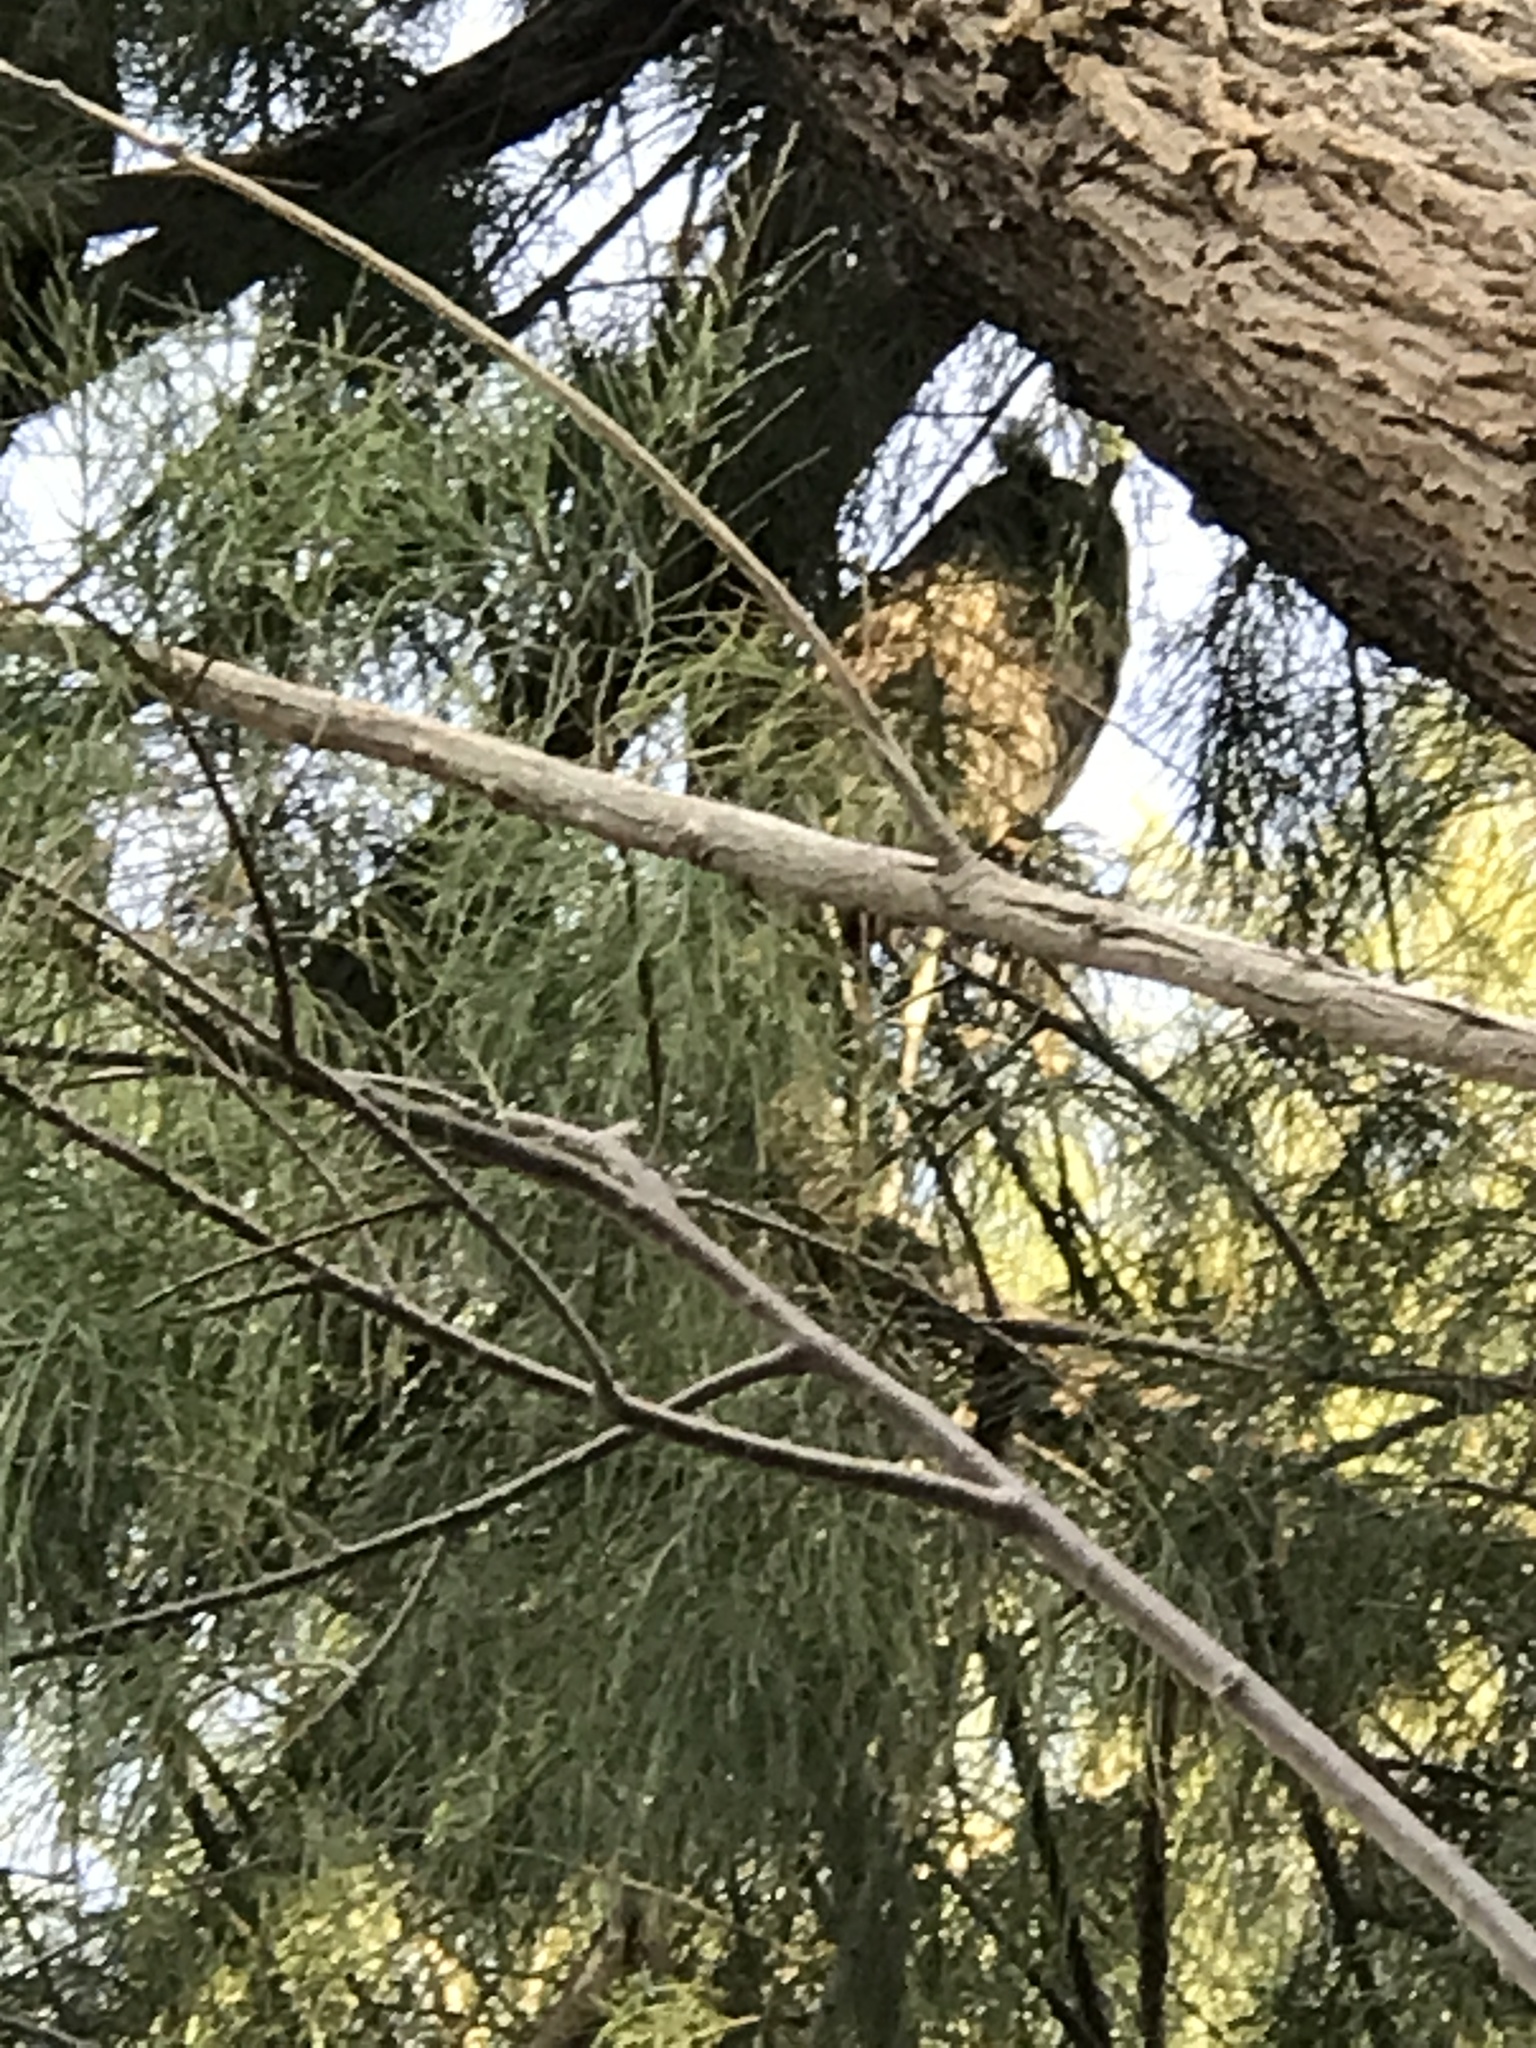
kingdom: Animalia
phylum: Chordata
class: Aves
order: Strigiformes
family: Strigidae
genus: Asio
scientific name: Asio otus
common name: Long-eared owl
